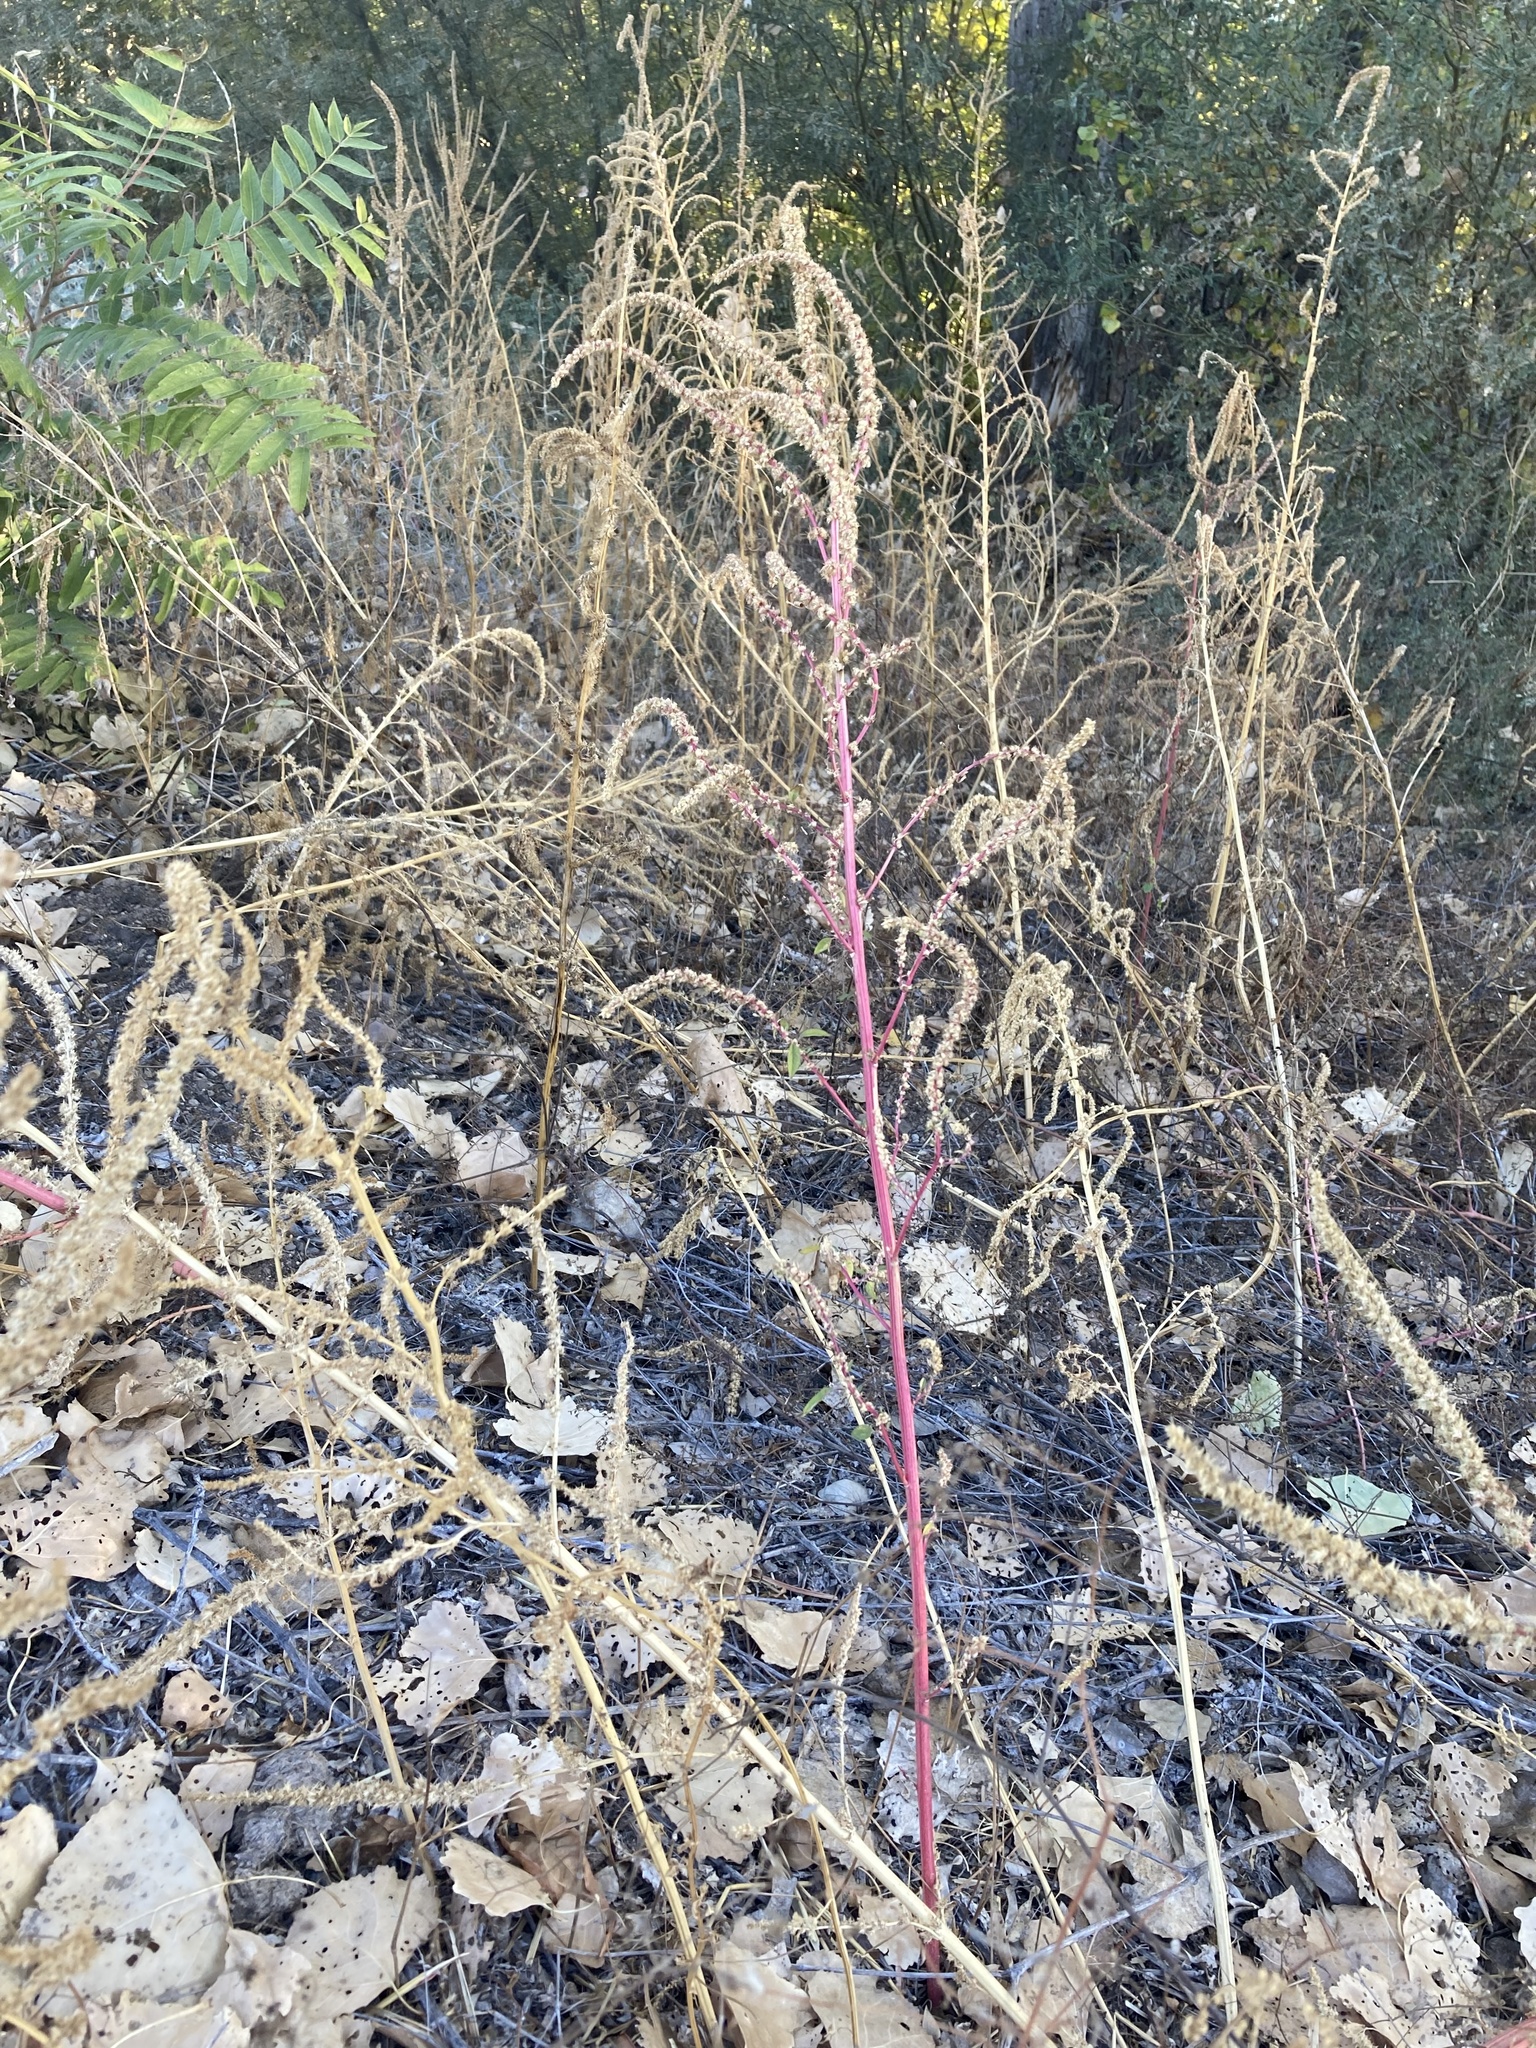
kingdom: Plantae
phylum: Tracheophyta
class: Magnoliopsida
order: Caryophyllales
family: Amaranthaceae
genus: Amaranthus
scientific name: Amaranthus palmeri
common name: Dioecious amaranth
